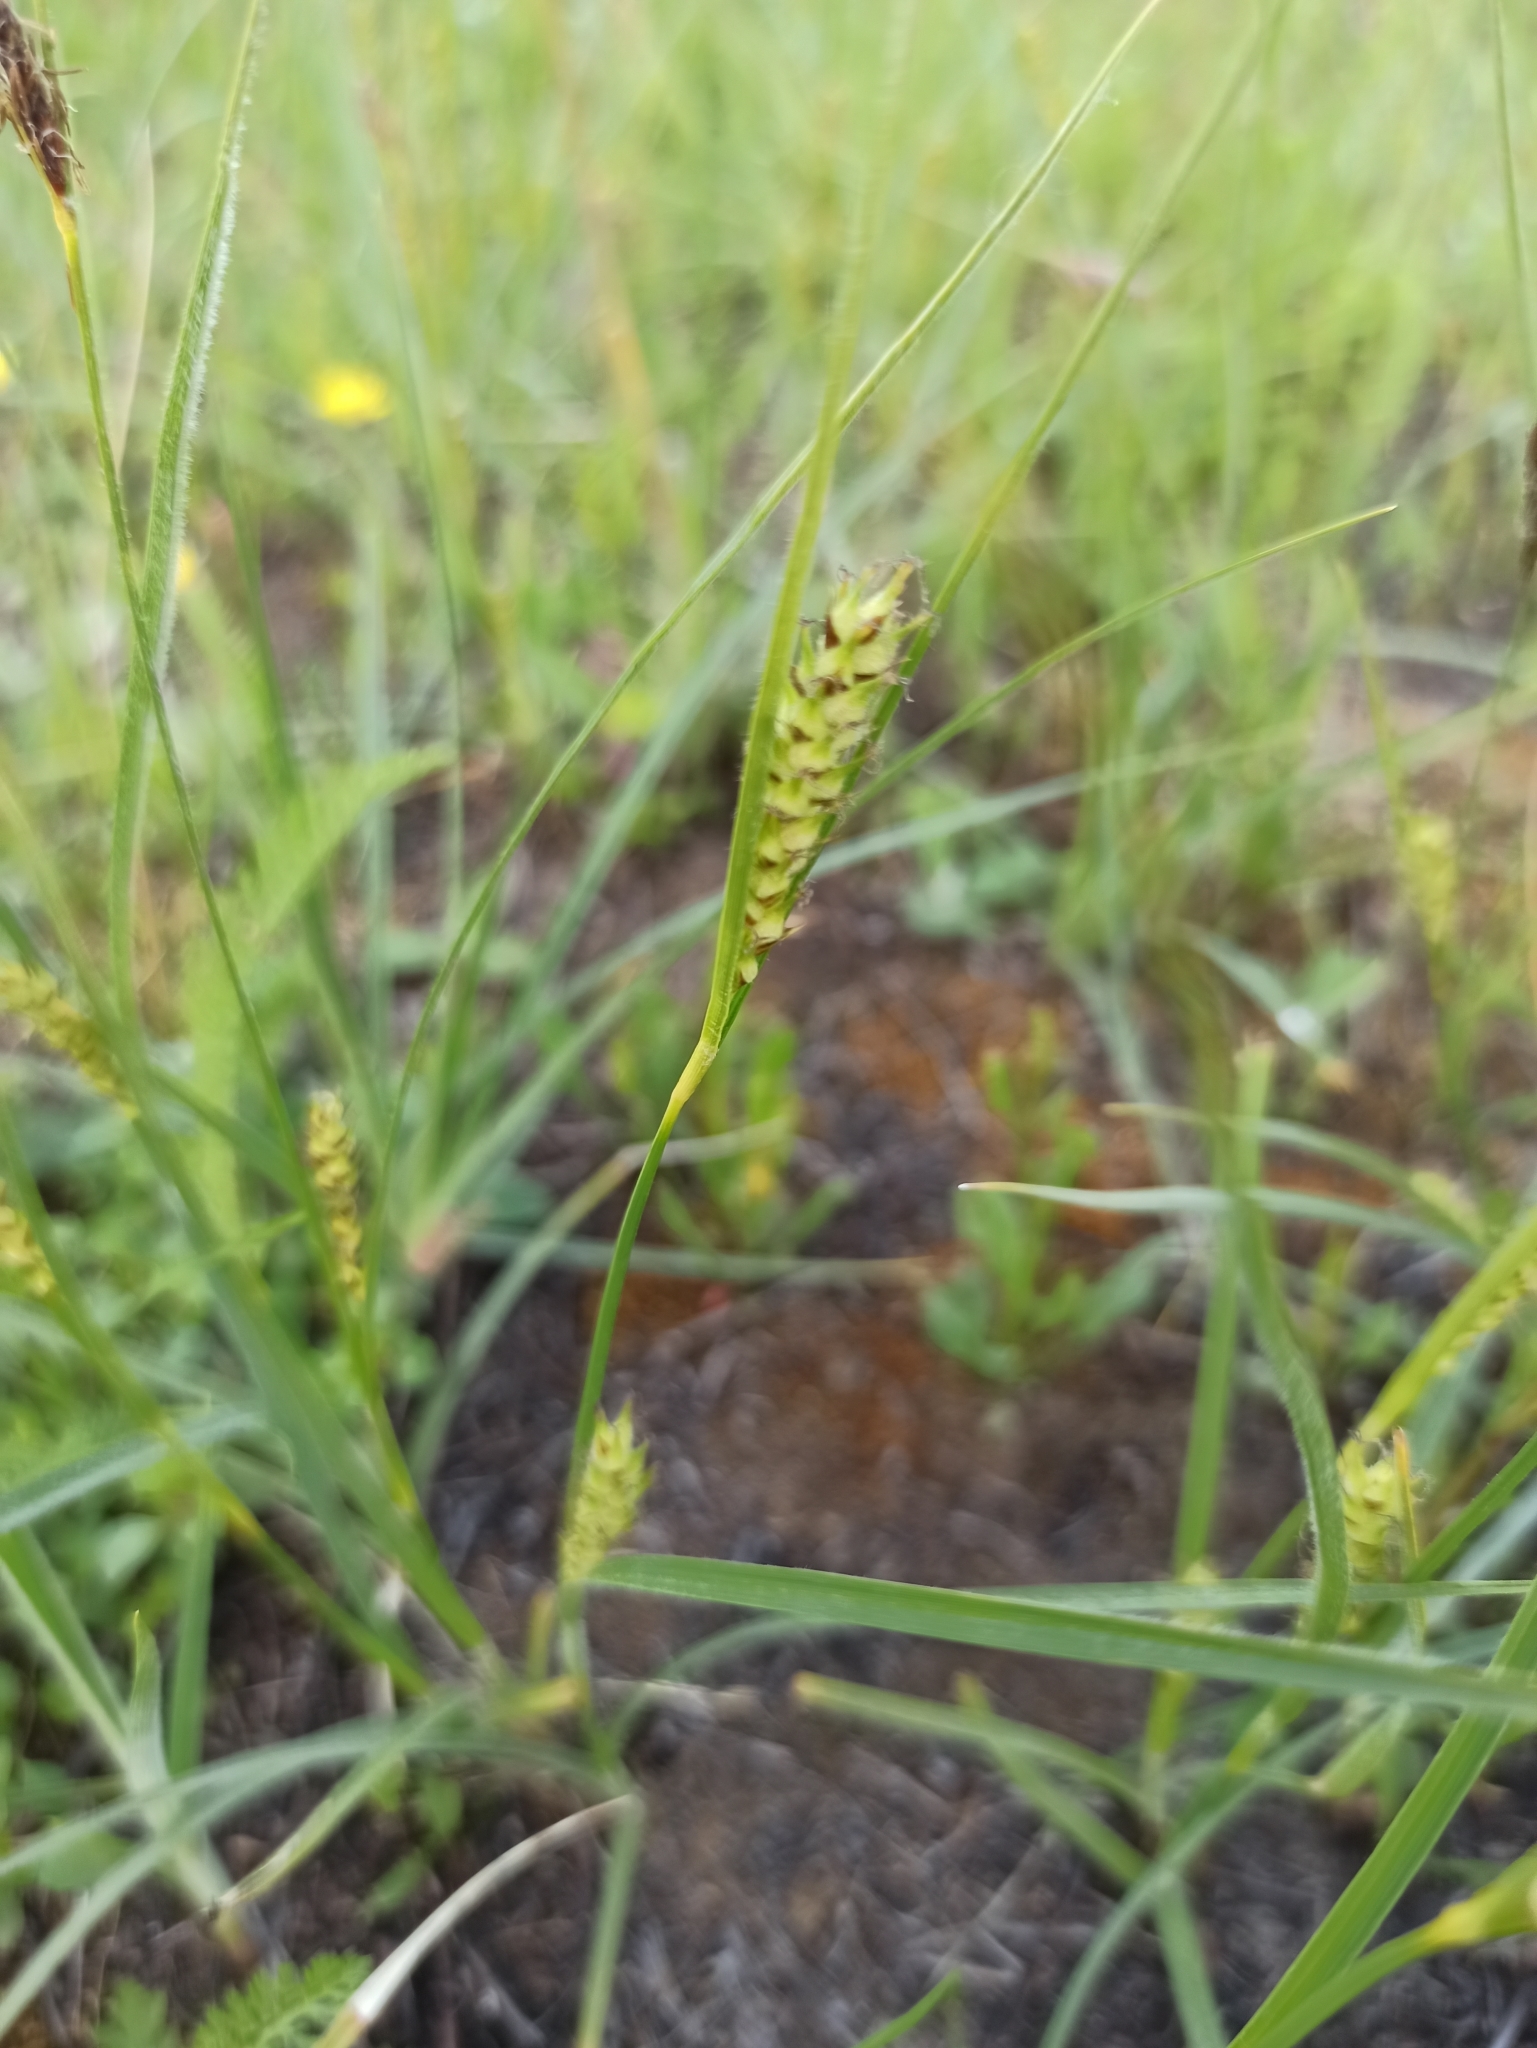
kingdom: Plantae
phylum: Tracheophyta
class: Liliopsida
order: Poales
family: Cyperaceae
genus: Carex
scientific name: Carex hirta
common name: Hairy sedge
